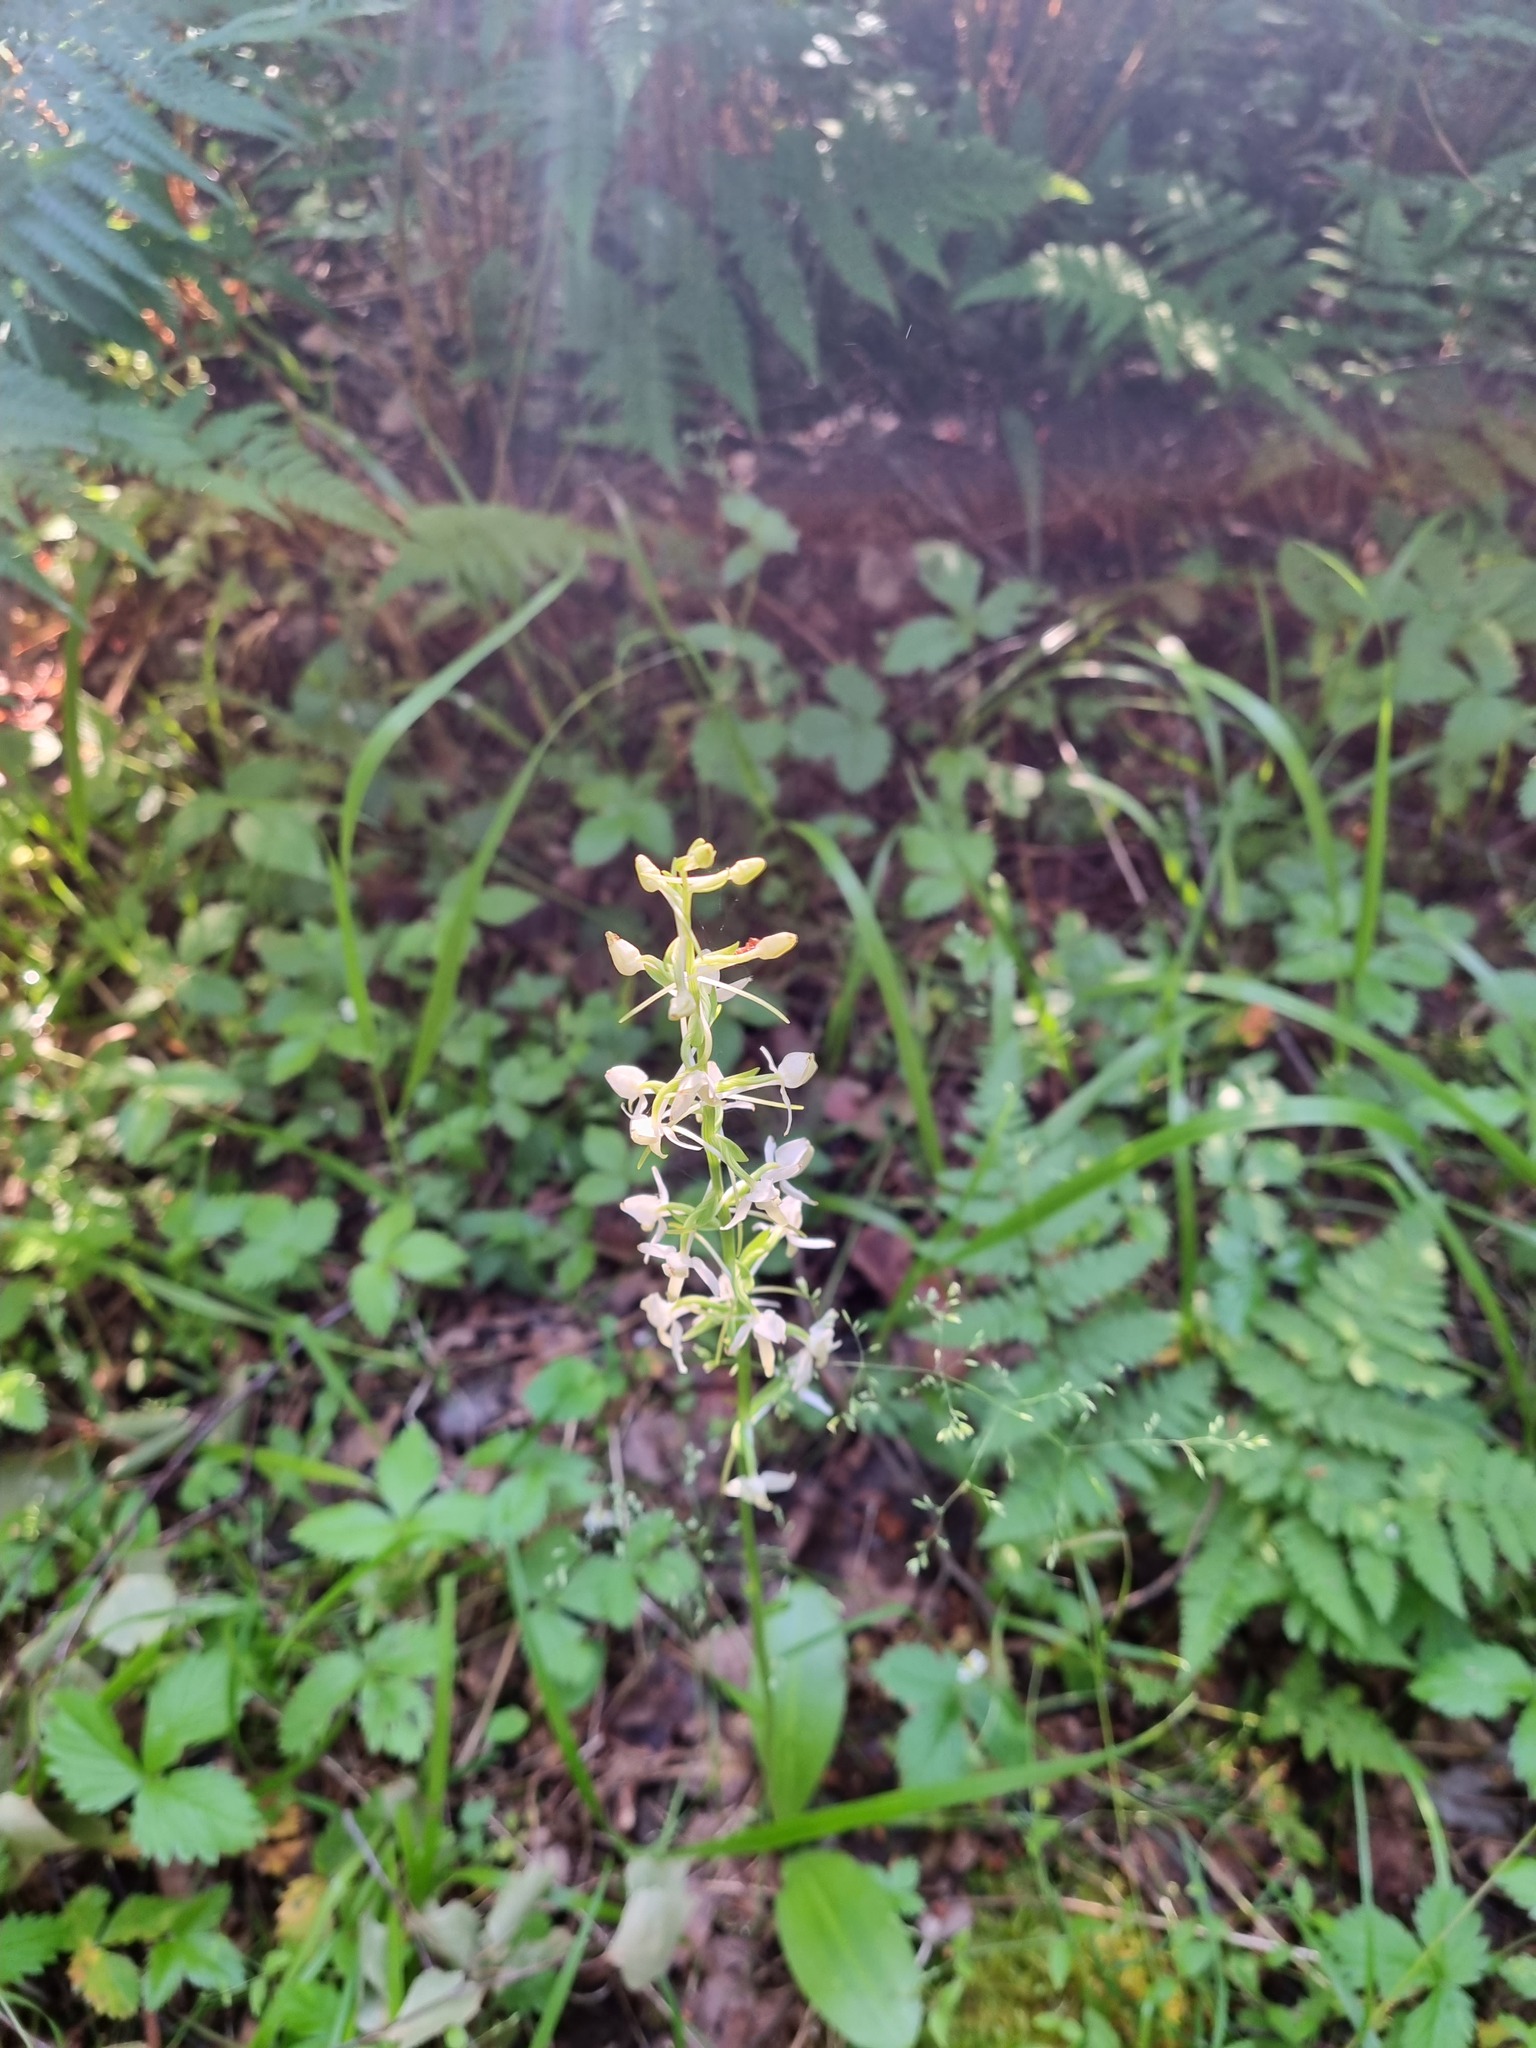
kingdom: Plantae
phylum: Tracheophyta
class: Liliopsida
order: Asparagales
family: Orchidaceae
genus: Platanthera
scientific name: Platanthera bifolia
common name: Lesser butterfly-orchid
